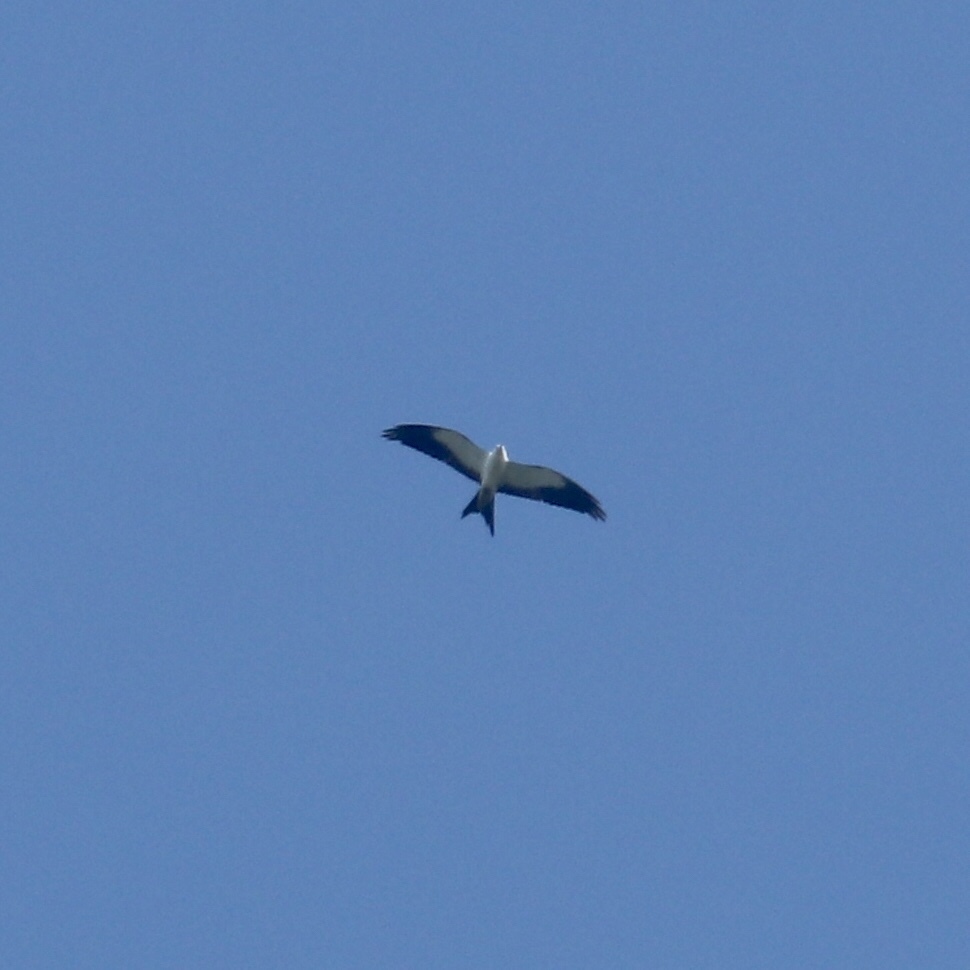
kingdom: Animalia
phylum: Chordata
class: Aves
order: Accipitriformes
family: Accipitridae
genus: Elanoides
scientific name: Elanoides forficatus
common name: Swallow-tailed kite
